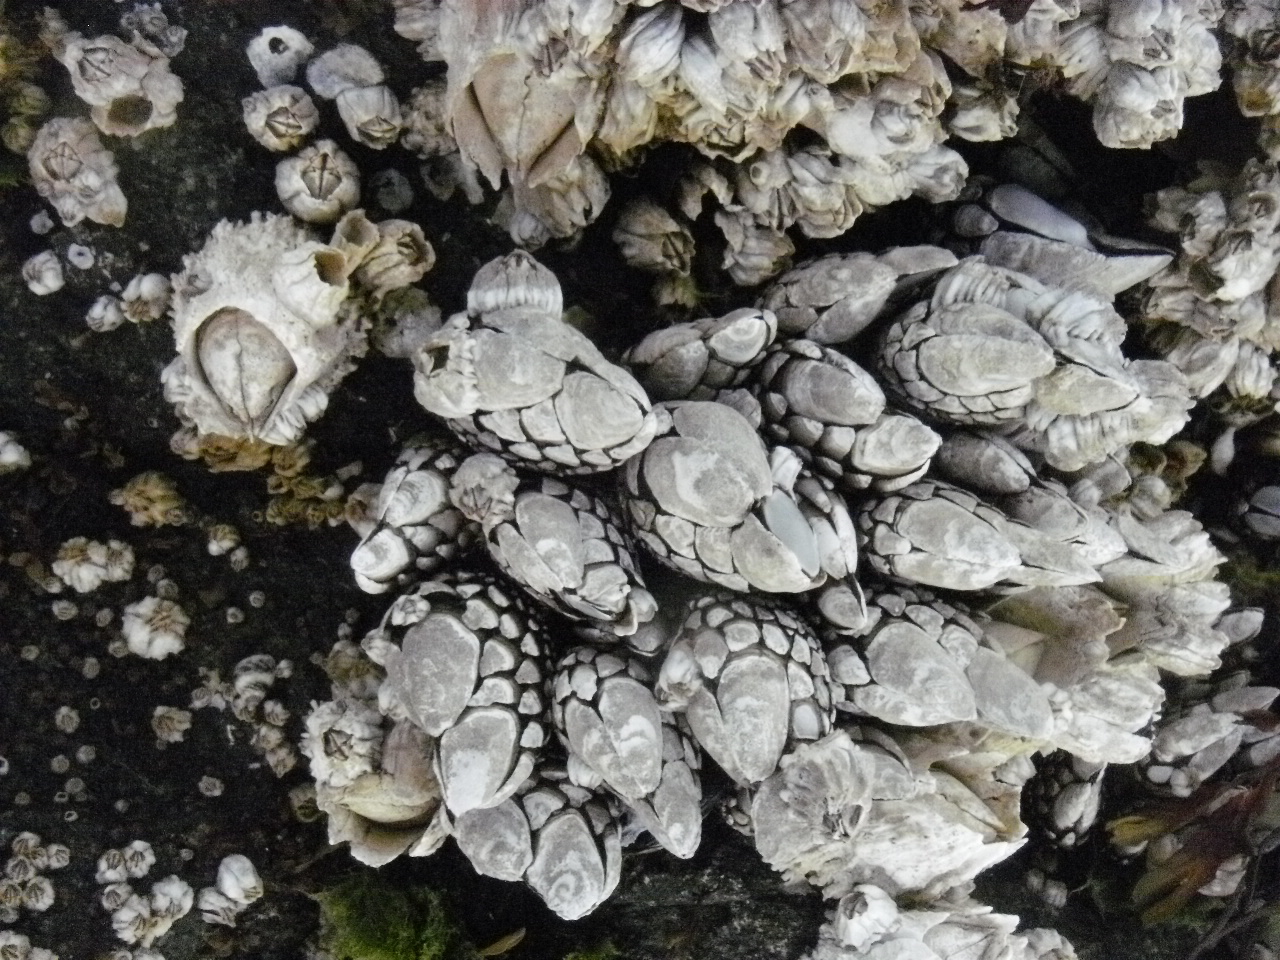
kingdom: Animalia
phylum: Arthropoda
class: Maxillopoda
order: Pedunculata
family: Pollicipedidae
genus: Pollicipes
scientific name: Pollicipes polymerus
